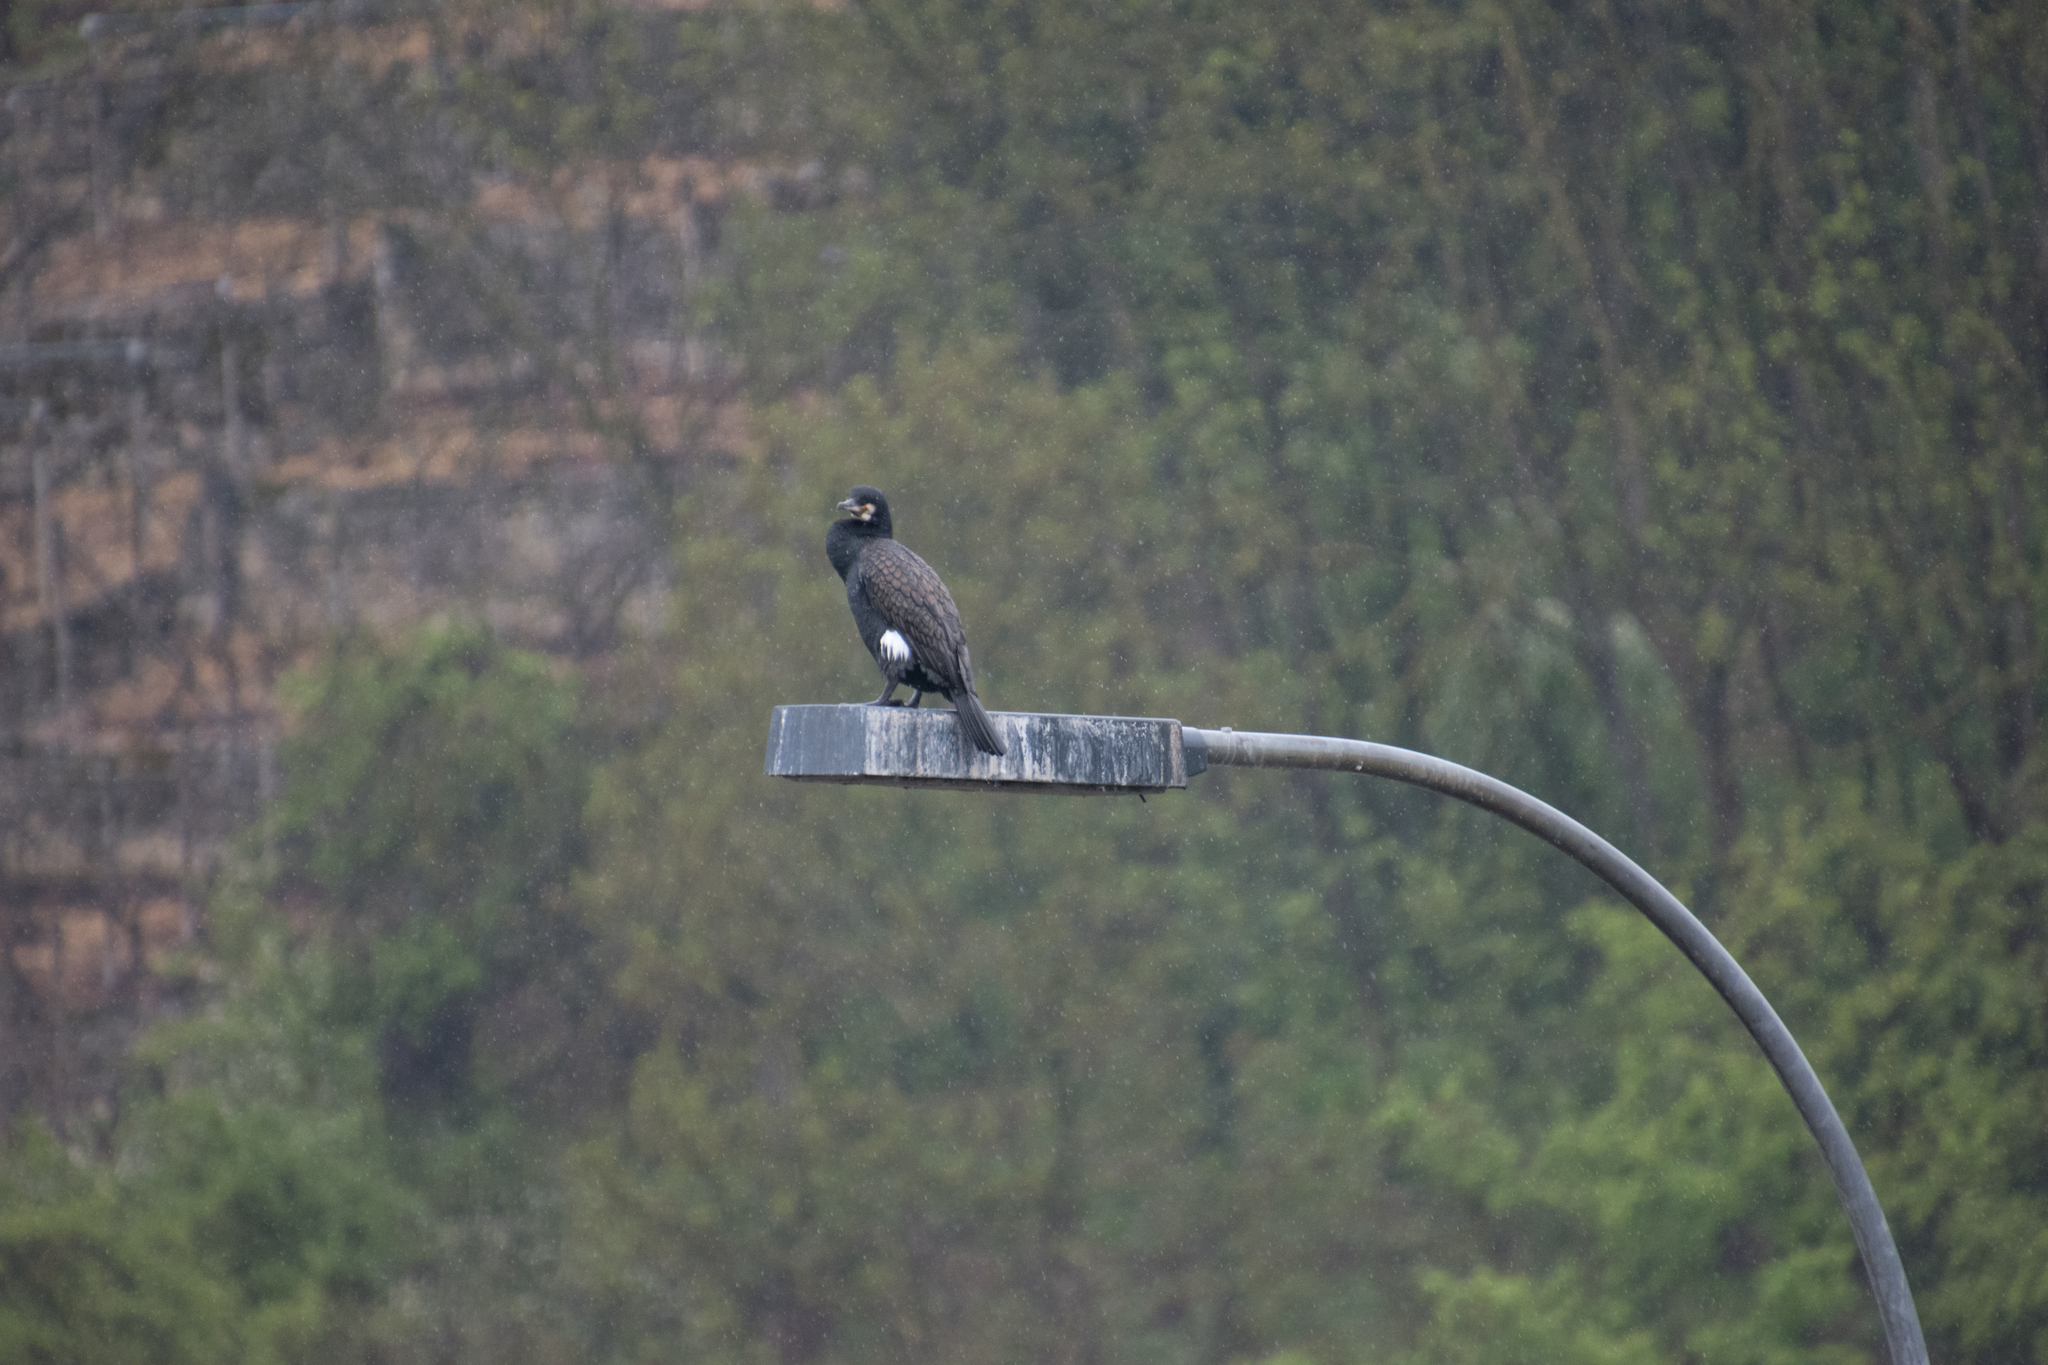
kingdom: Animalia
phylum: Chordata
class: Aves
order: Suliformes
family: Phalacrocoracidae
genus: Phalacrocorax
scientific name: Phalacrocorax carbo
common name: Great cormorant
